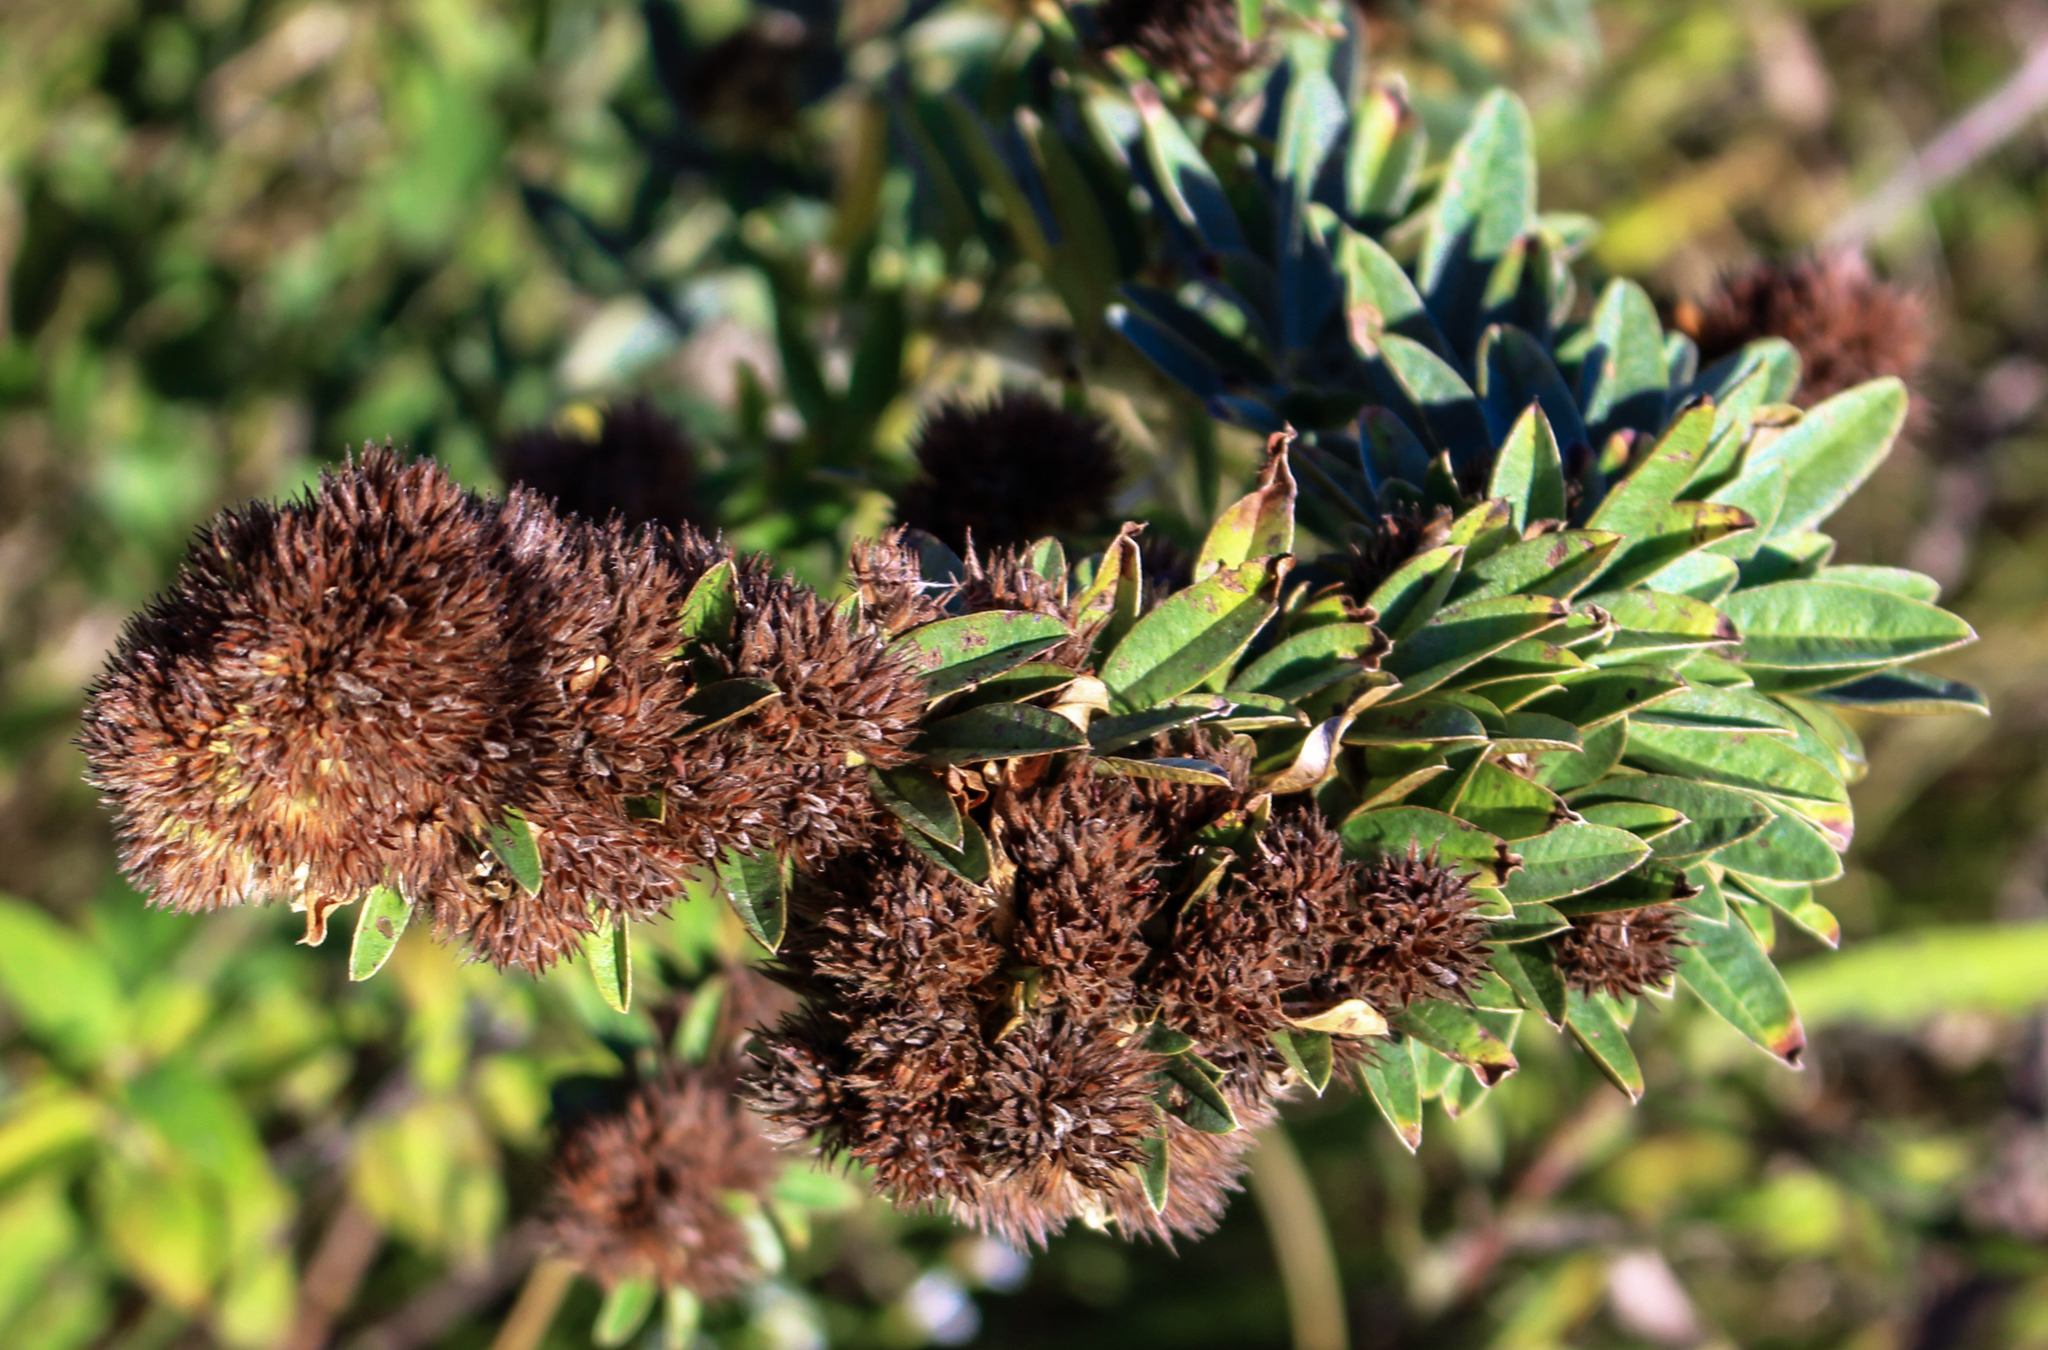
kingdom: Plantae
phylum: Tracheophyta
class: Magnoliopsida
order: Fabales
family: Fabaceae
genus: Lespedeza
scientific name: Lespedeza capitata
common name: Dusty clover
